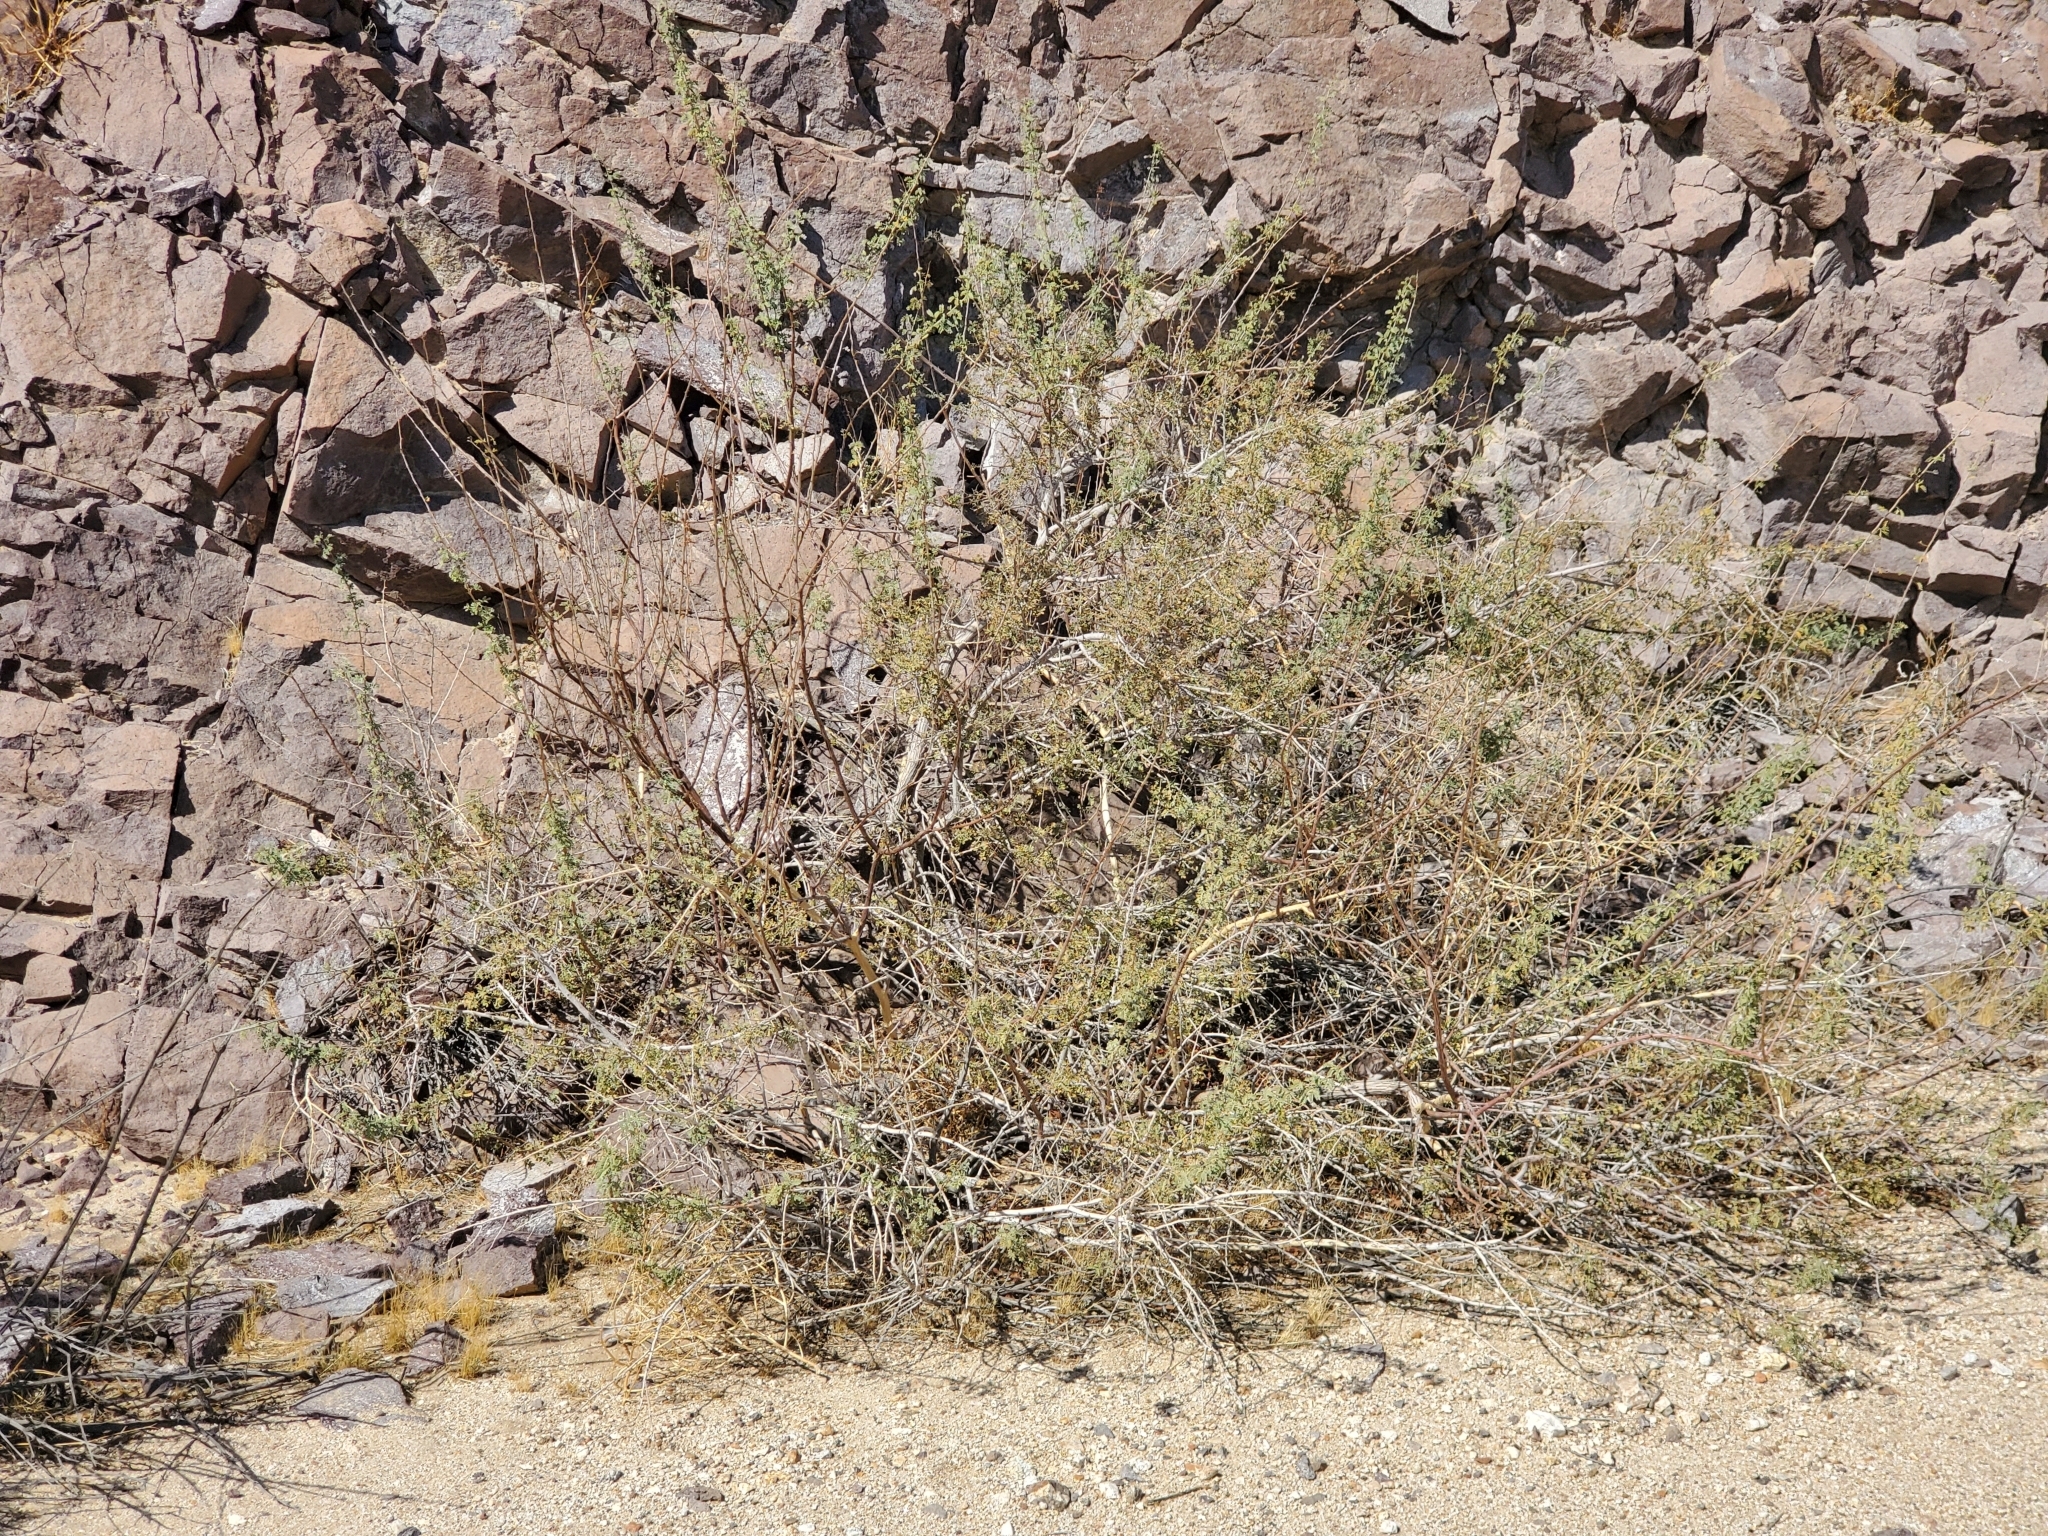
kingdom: Plantae
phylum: Tracheophyta
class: Magnoliopsida
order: Fabales
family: Fabaceae
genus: Senegalia
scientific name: Senegalia greggii
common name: Texas-mimosa
